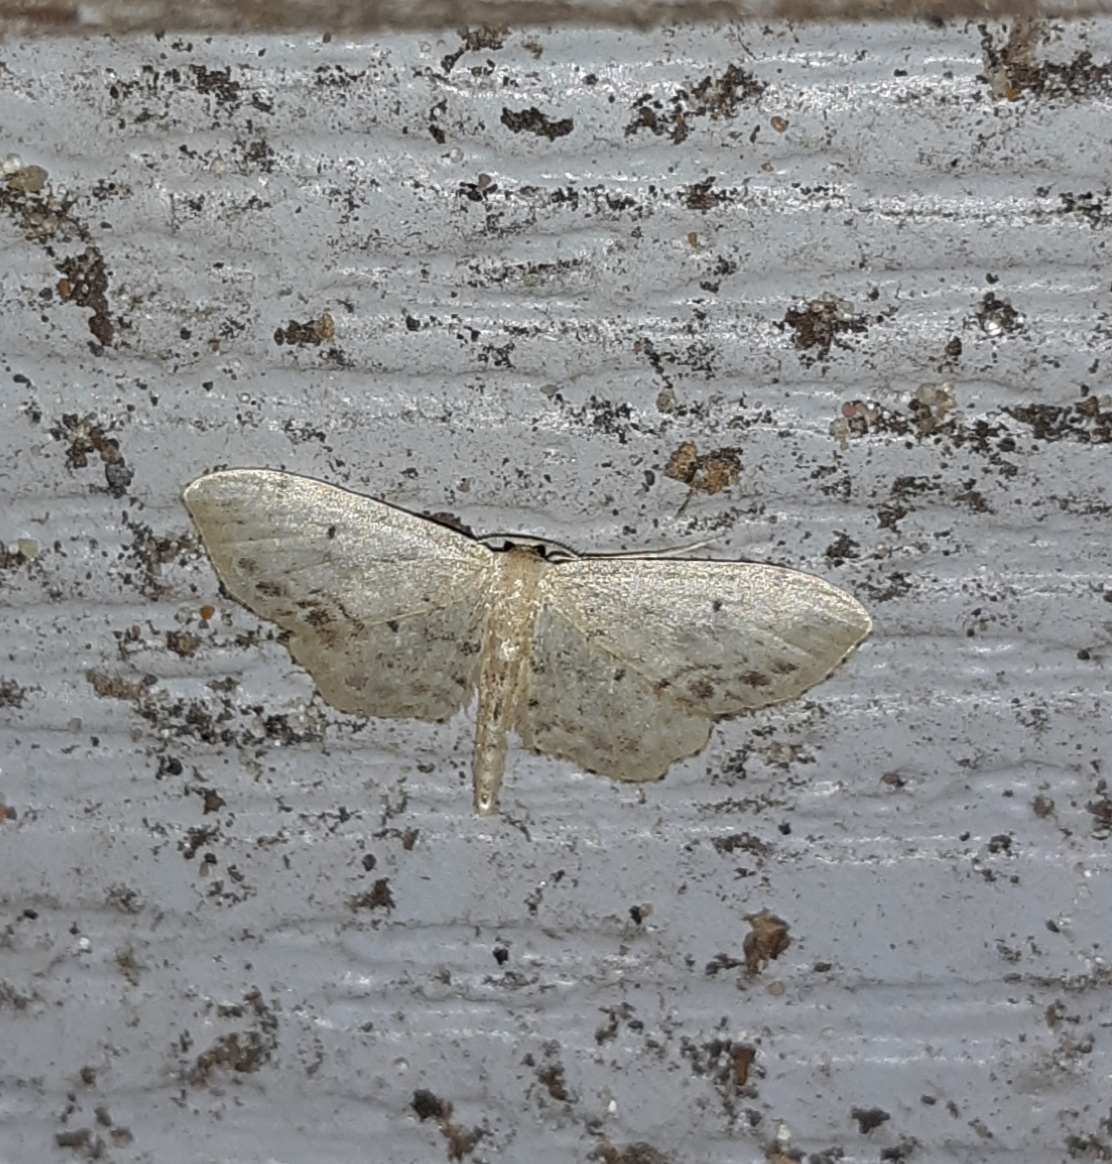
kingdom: Animalia
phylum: Arthropoda
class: Insecta
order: Lepidoptera
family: Geometridae
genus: Idaea
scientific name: Idaea dimidiata
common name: Single-dotted wave
